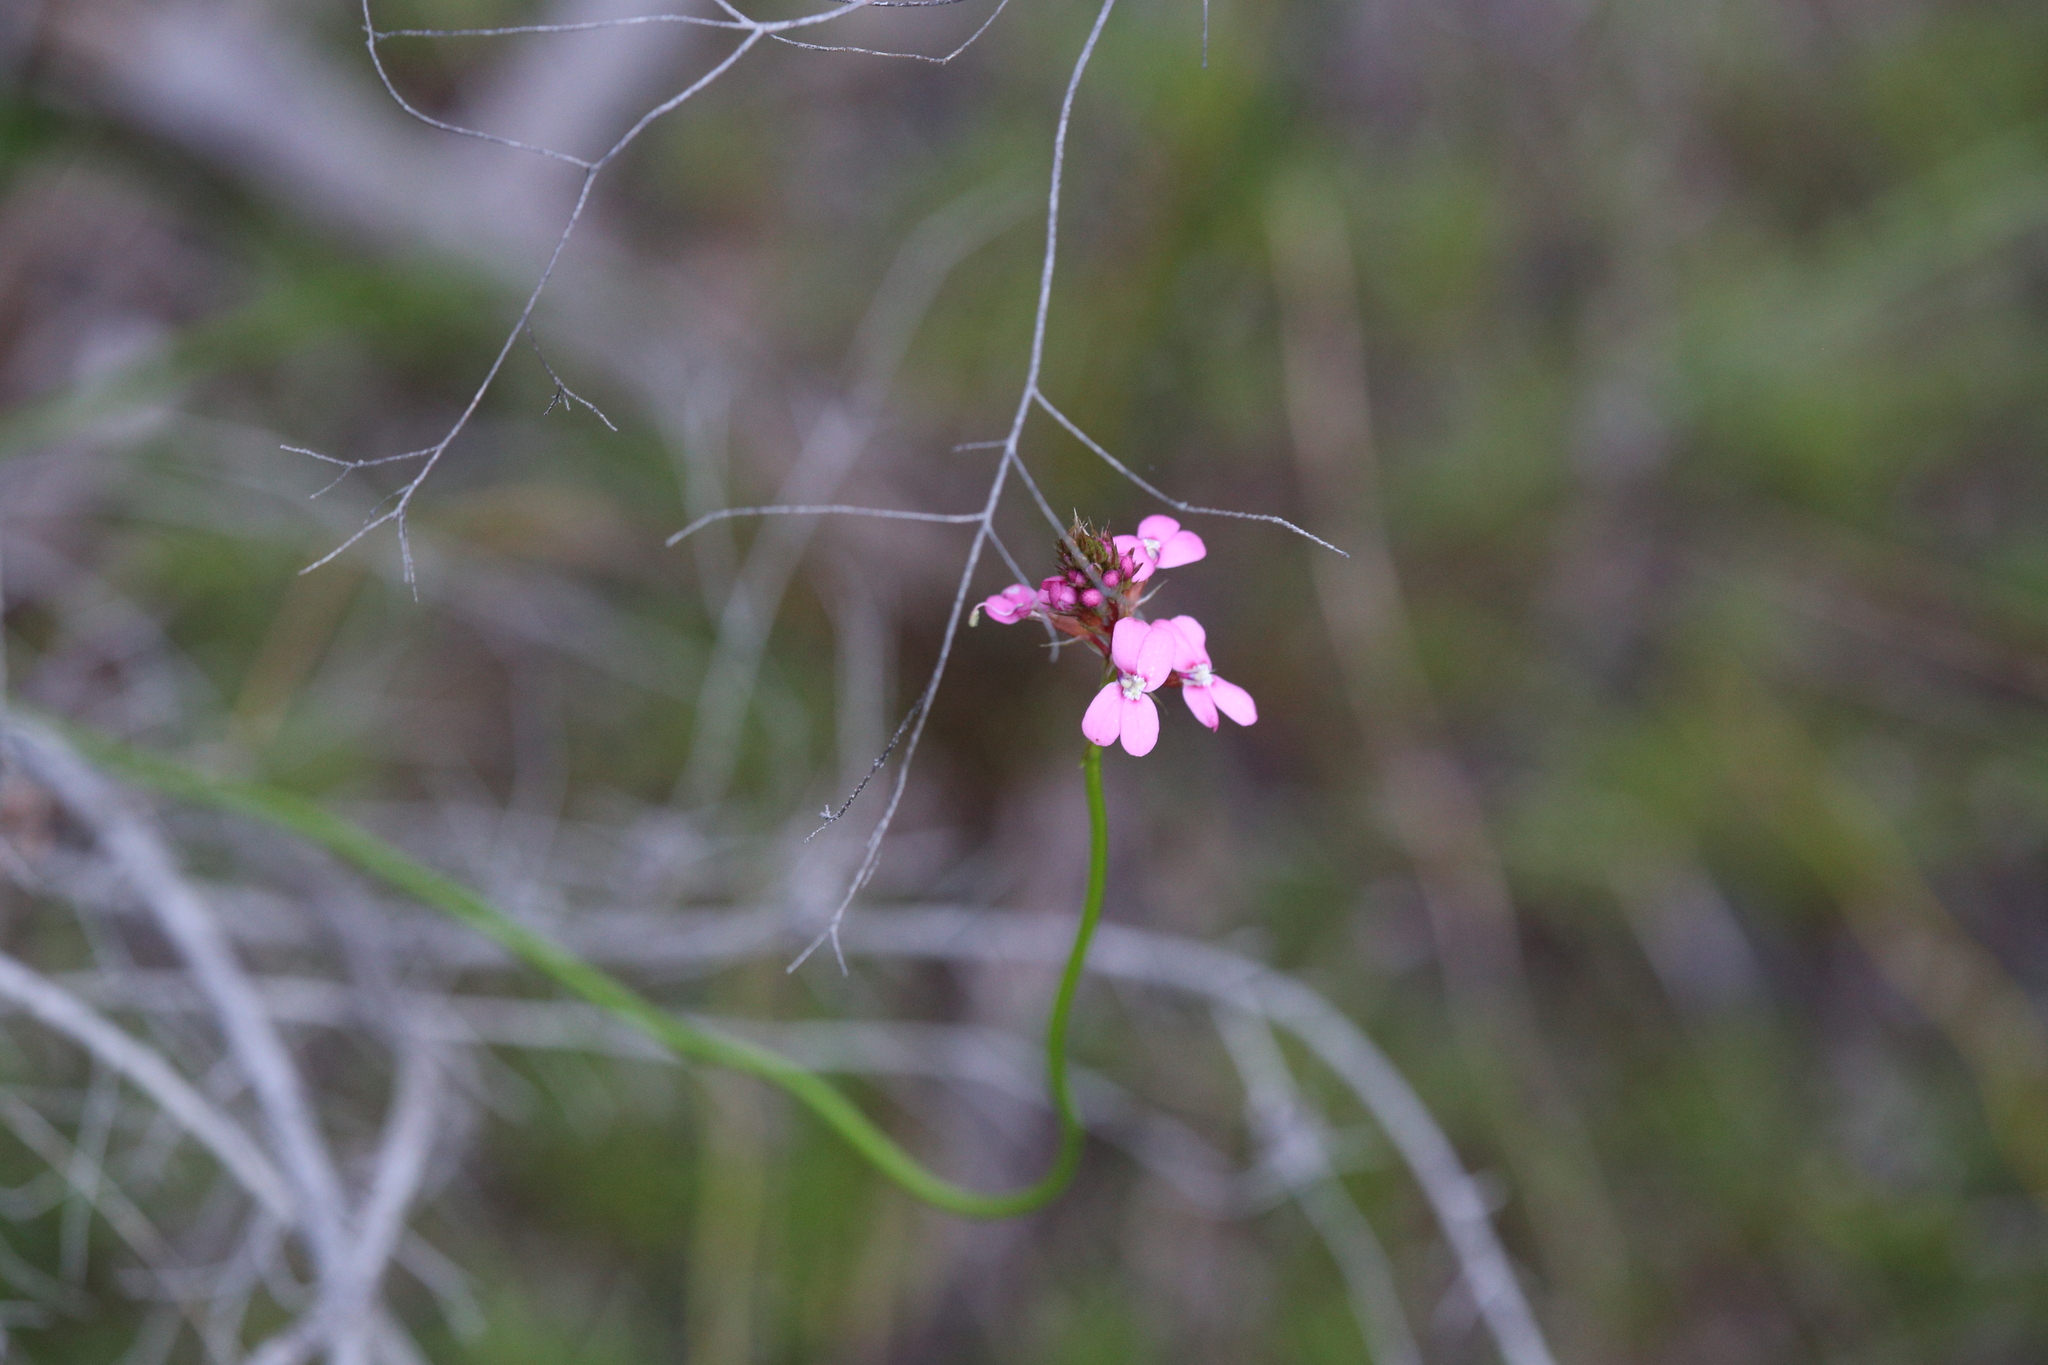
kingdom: Plantae
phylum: Tracheophyta
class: Magnoliopsida
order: Asterales
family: Stylidiaceae
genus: Stylidium
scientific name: Stylidium paludicola
